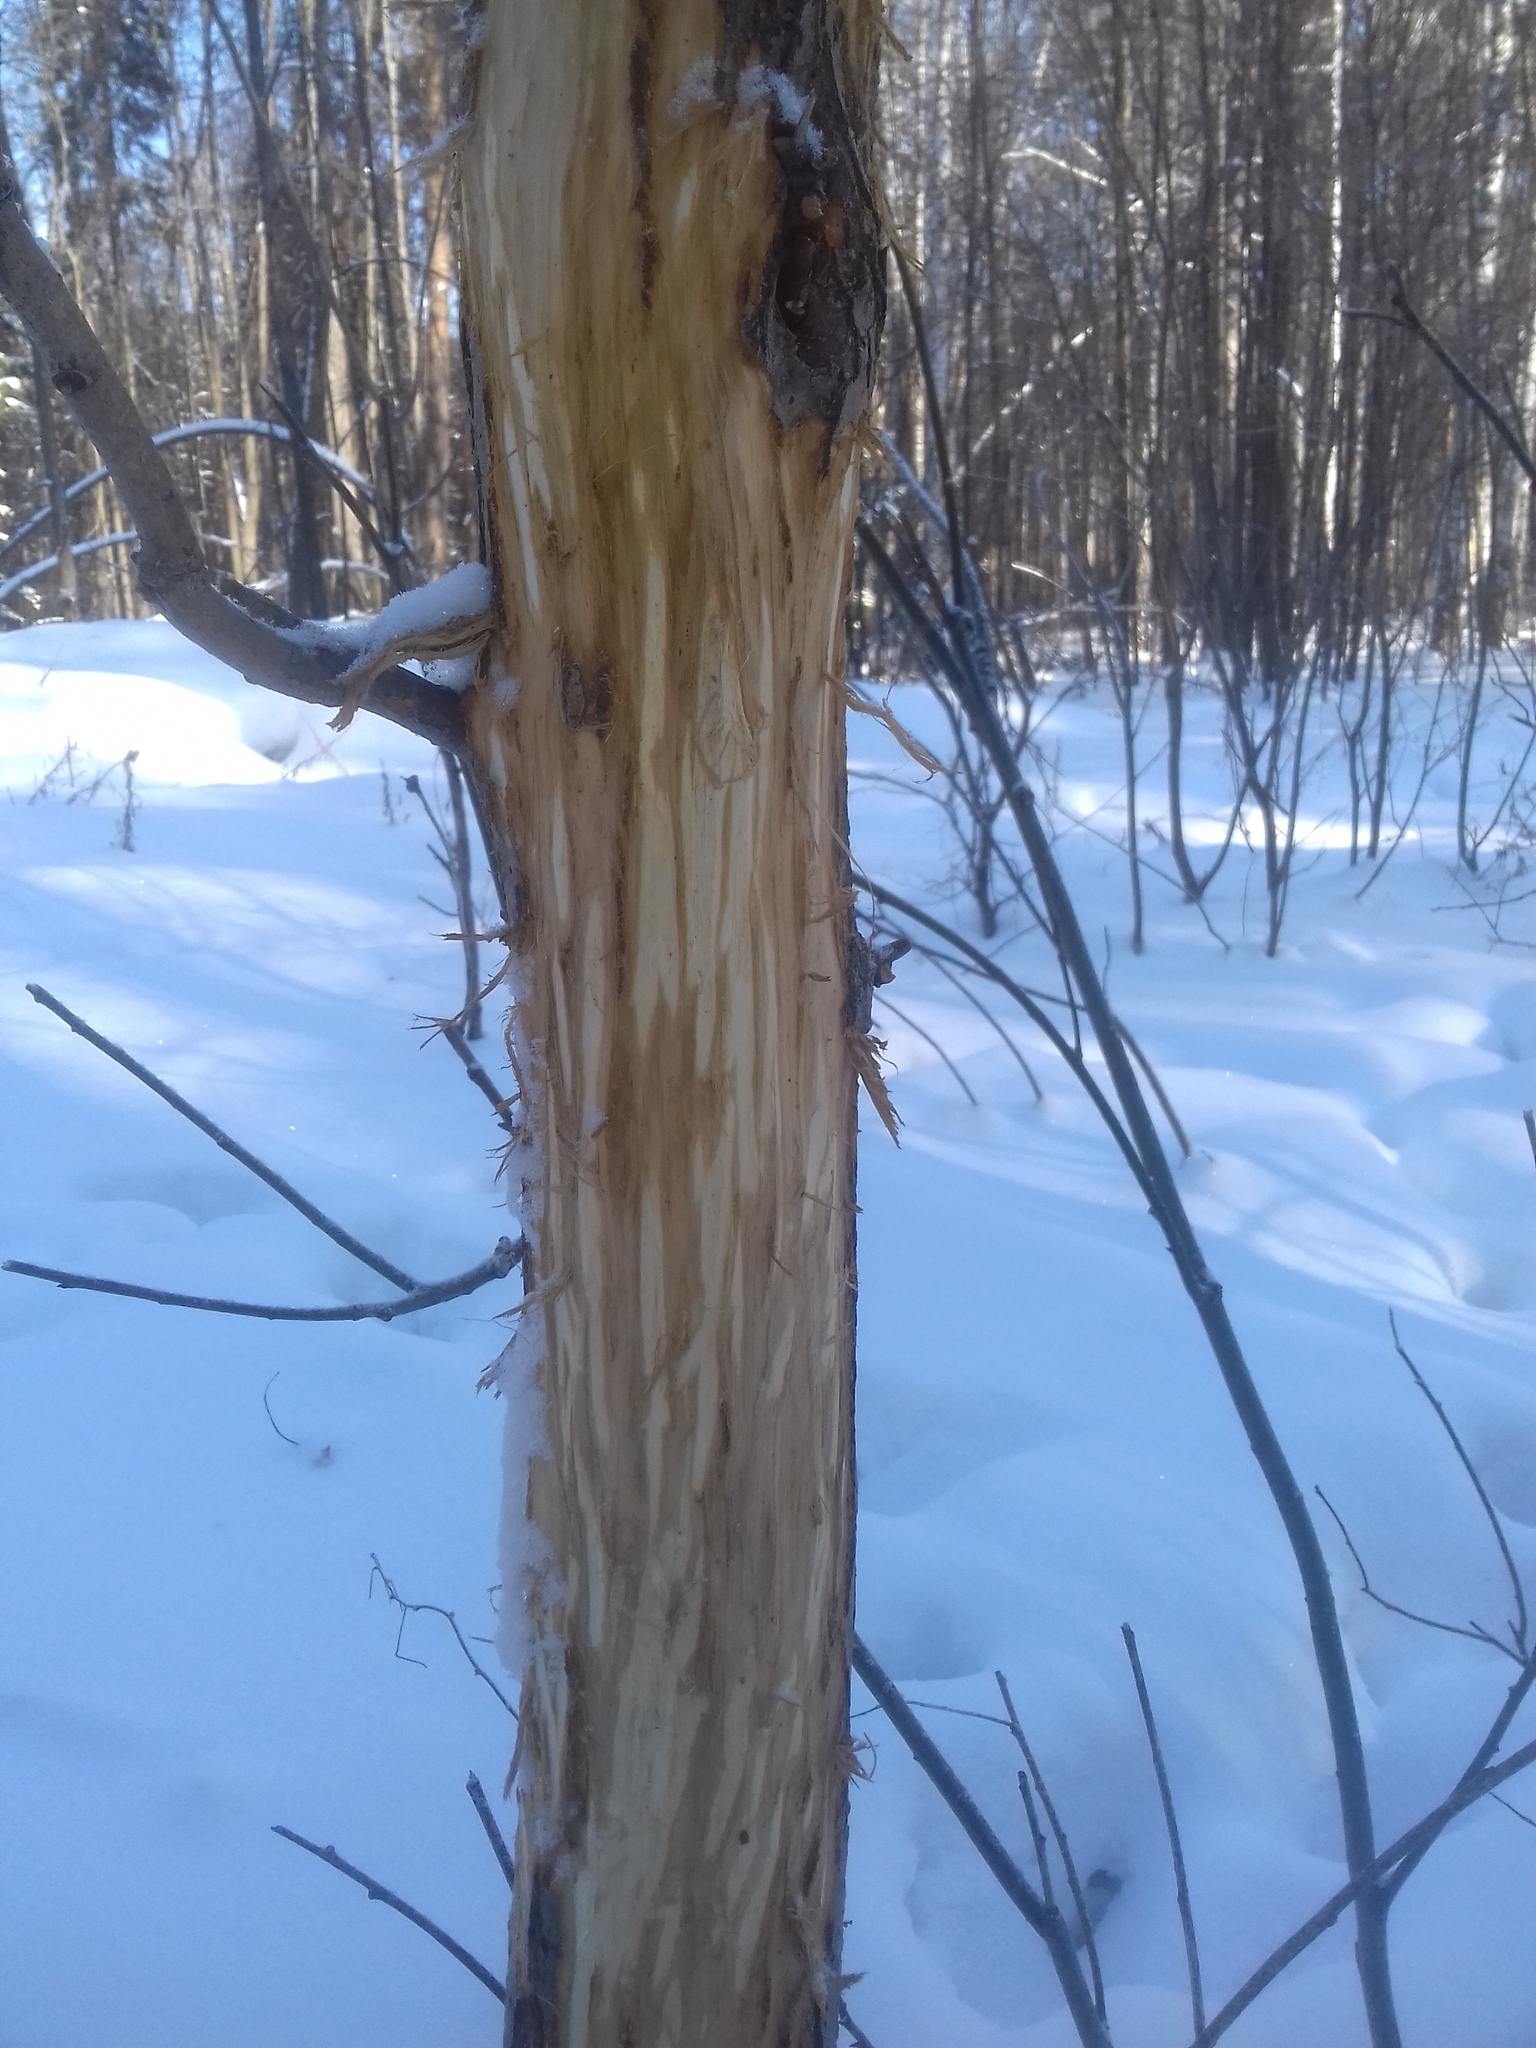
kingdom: Animalia
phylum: Chordata
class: Mammalia
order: Artiodactyla
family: Cervidae
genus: Alces
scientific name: Alces alces
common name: Moose
